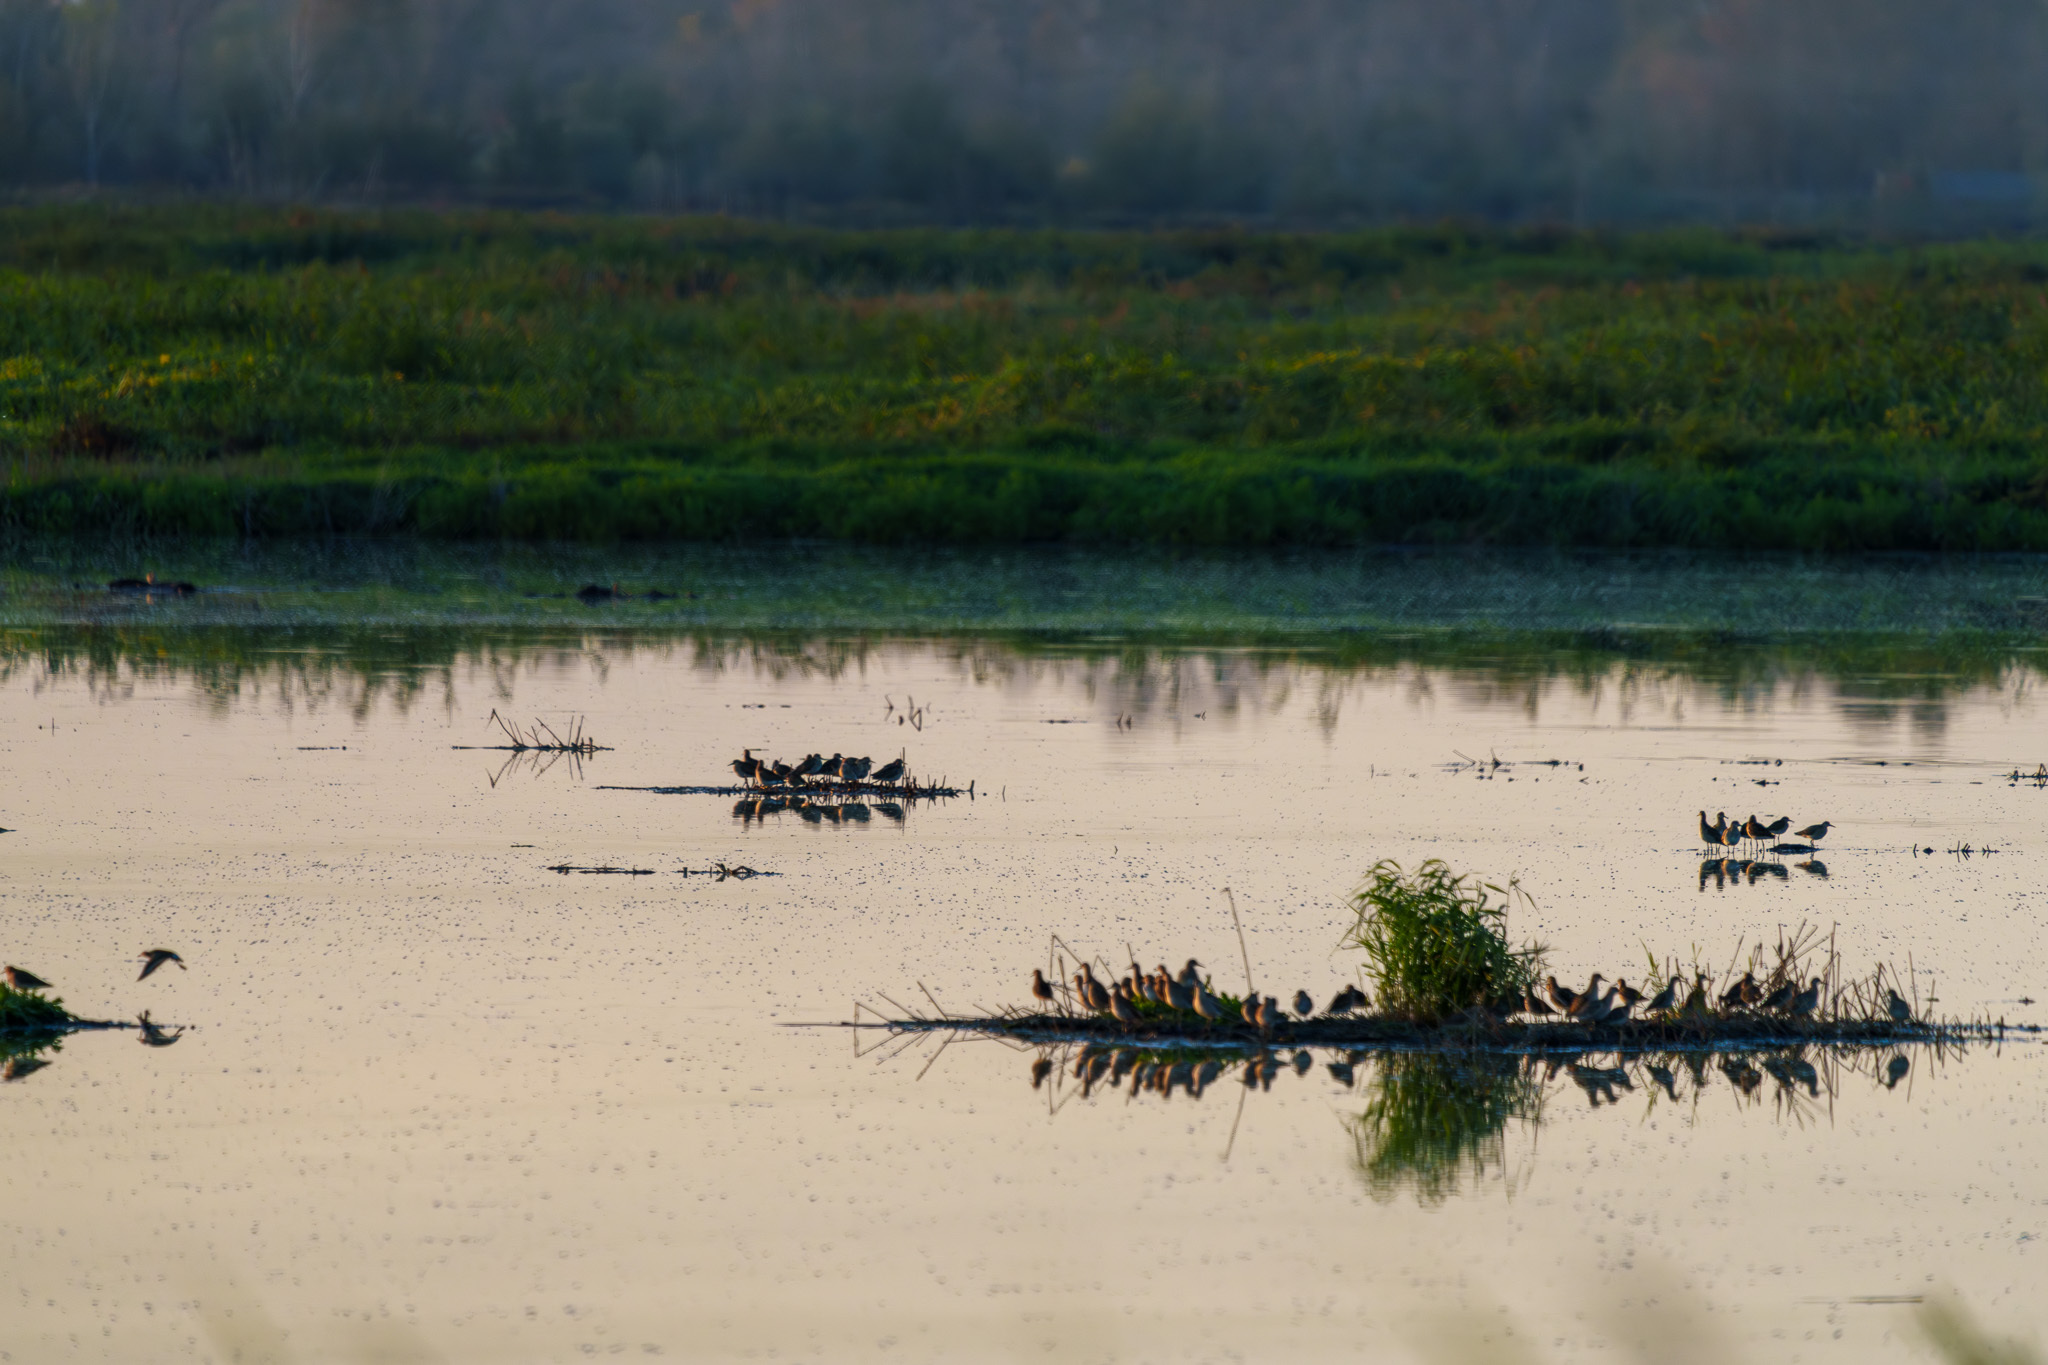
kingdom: Animalia
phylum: Chordata
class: Aves
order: Charadriiformes
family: Scolopacidae
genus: Calidris
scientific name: Calidris pugnax
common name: Ruff
